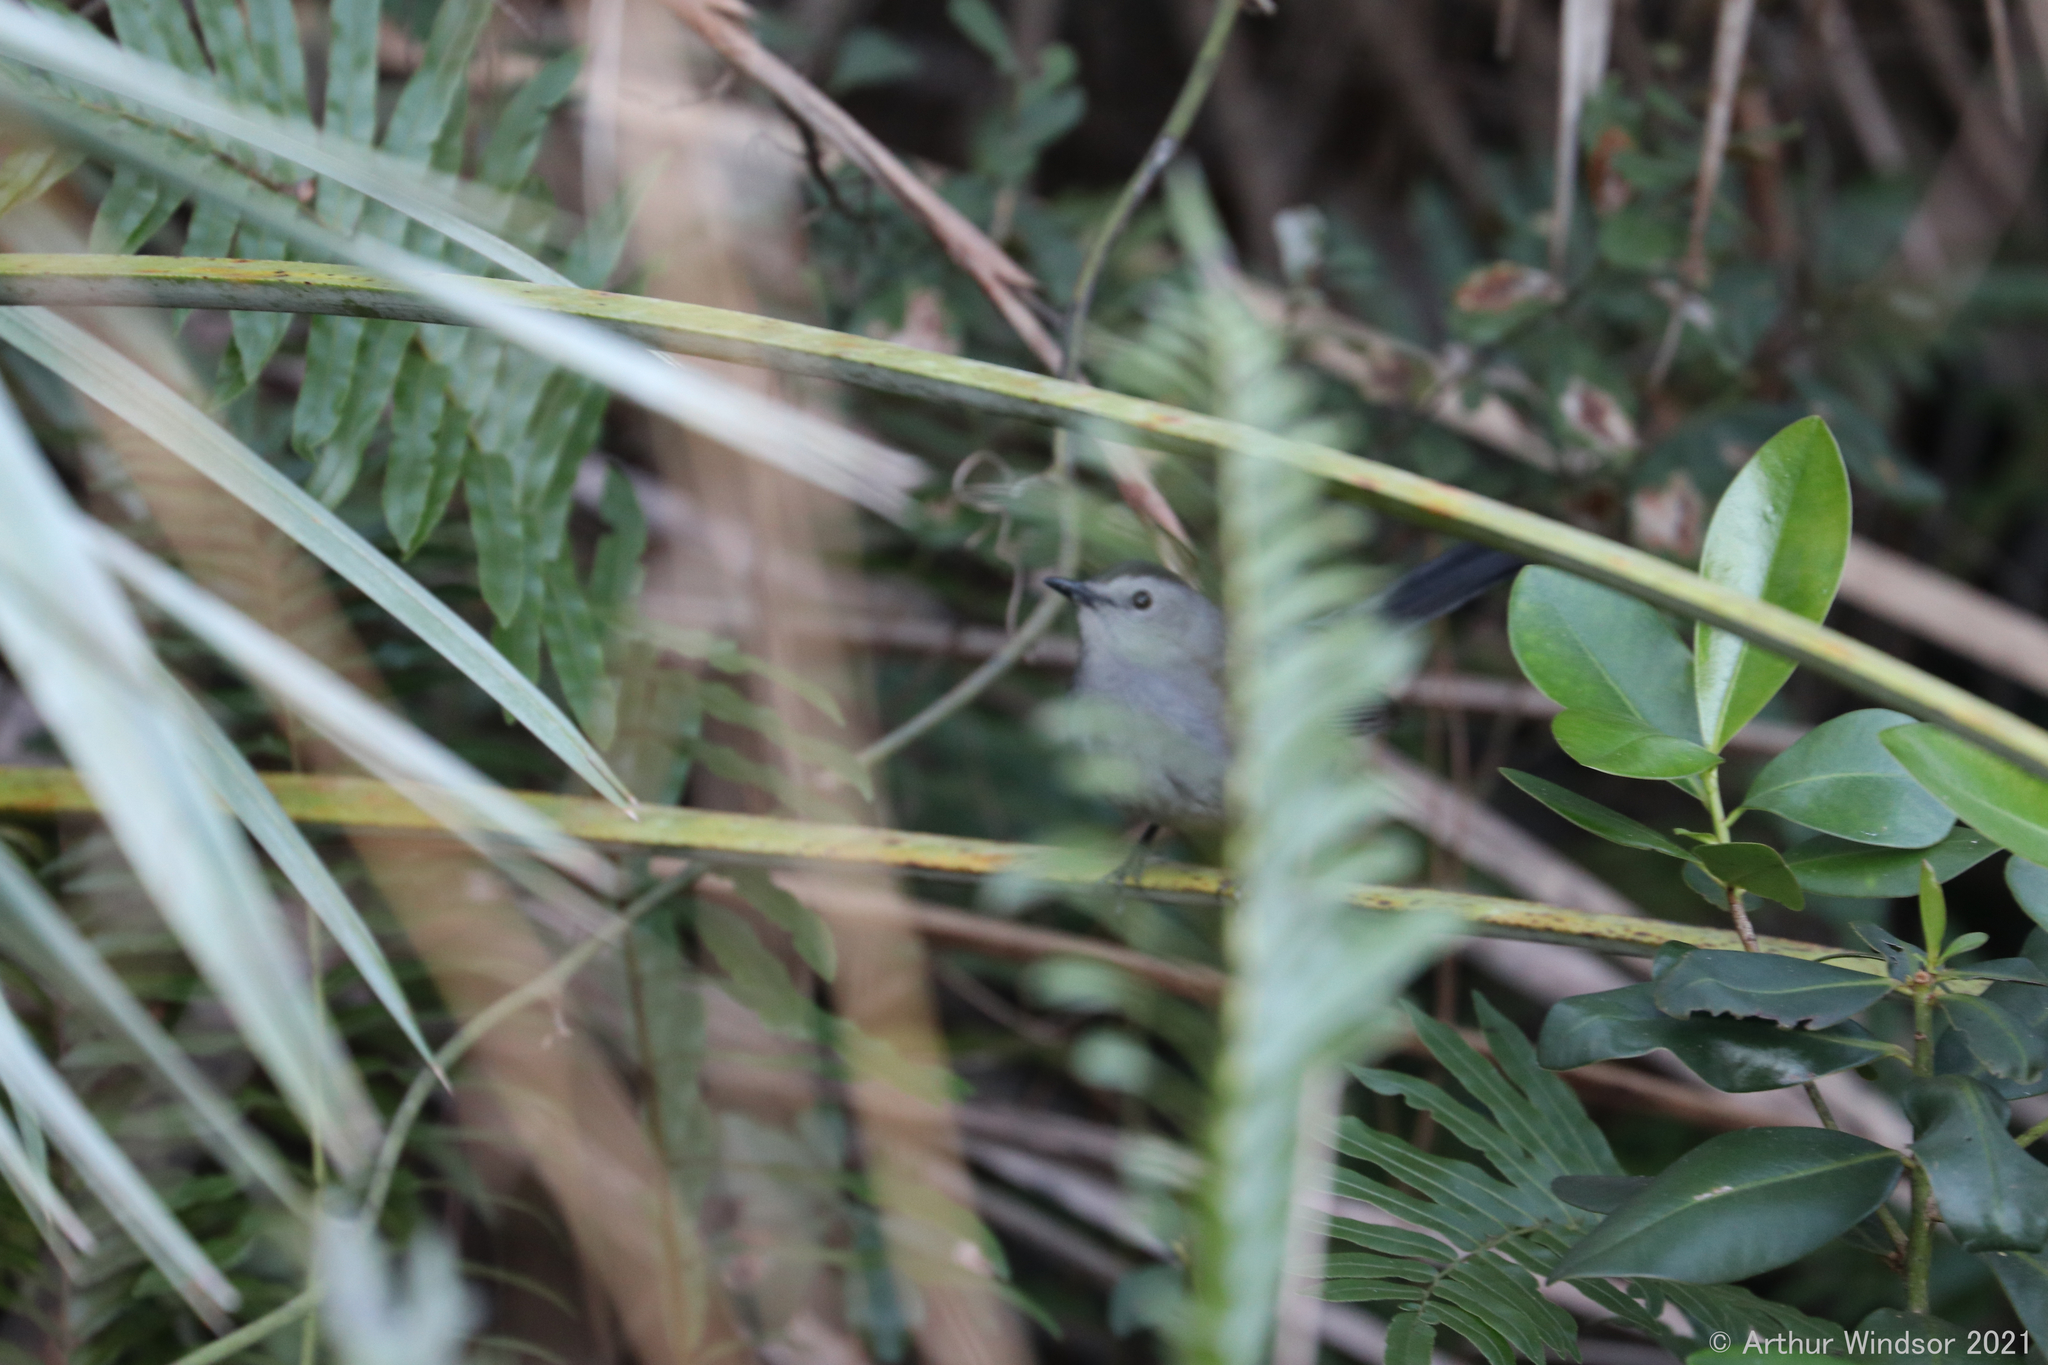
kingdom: Animalia
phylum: Chordata
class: Aves
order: Passeriformes
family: Mimidae
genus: Dumetella
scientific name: Dumetella carolinensis
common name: Gray catbird
